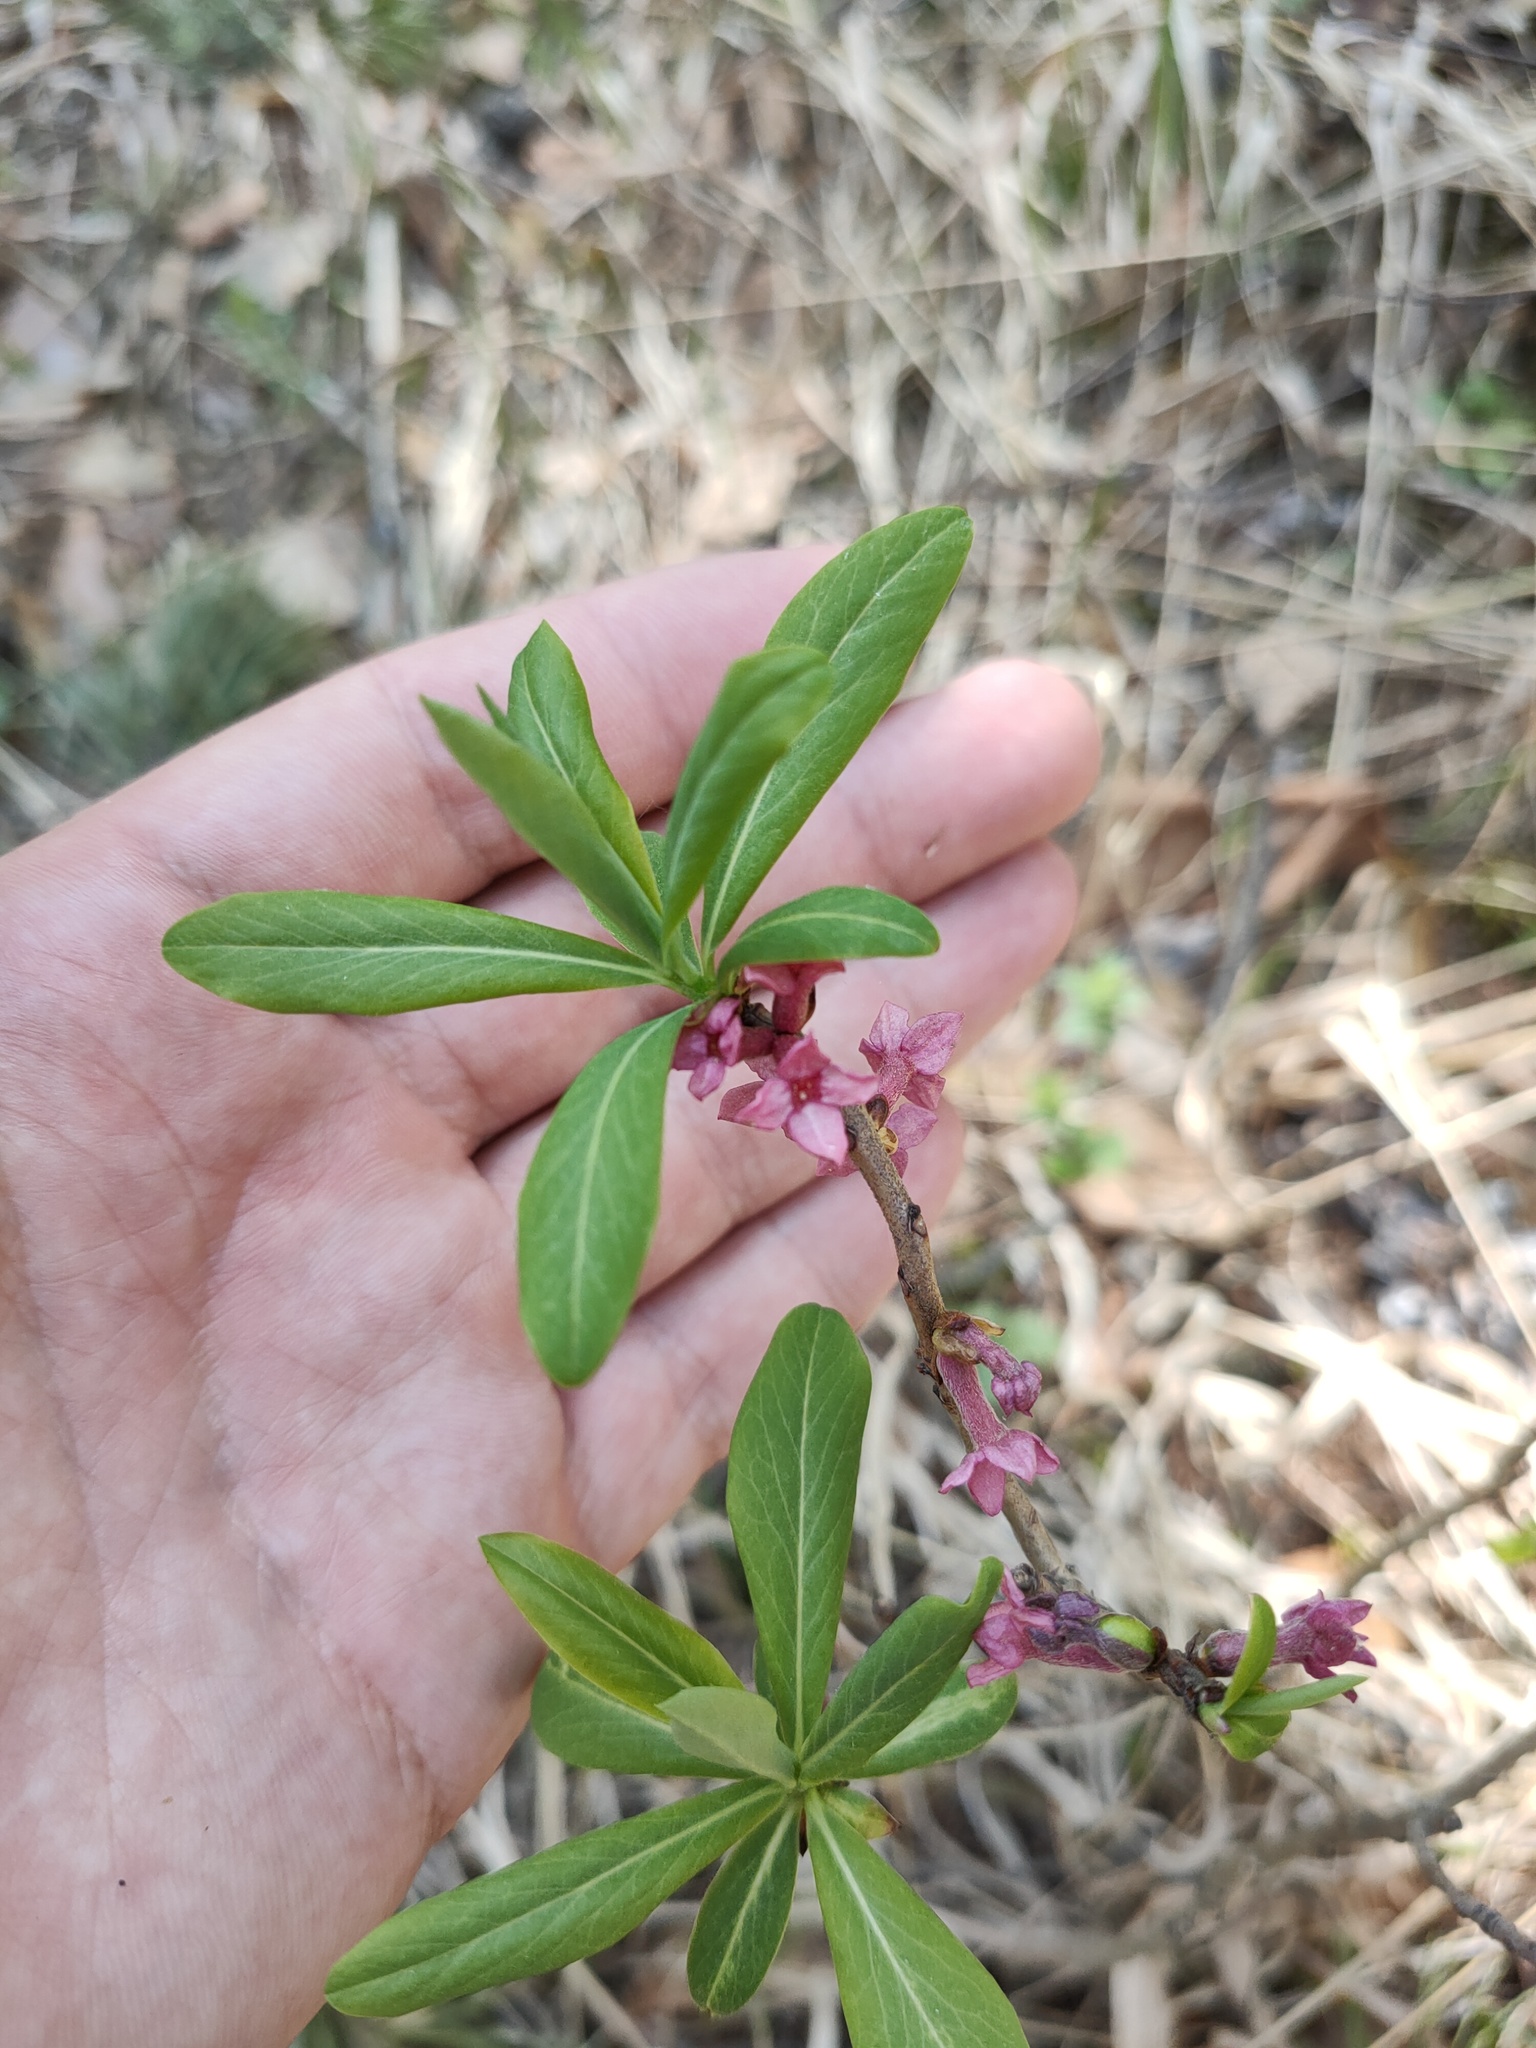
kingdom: Plantae
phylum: Tracheophyta
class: Magnoliopsida
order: Malvales
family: Thymelaeaceae
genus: Daphne
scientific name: Daphne mezereum
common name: Mezereon
